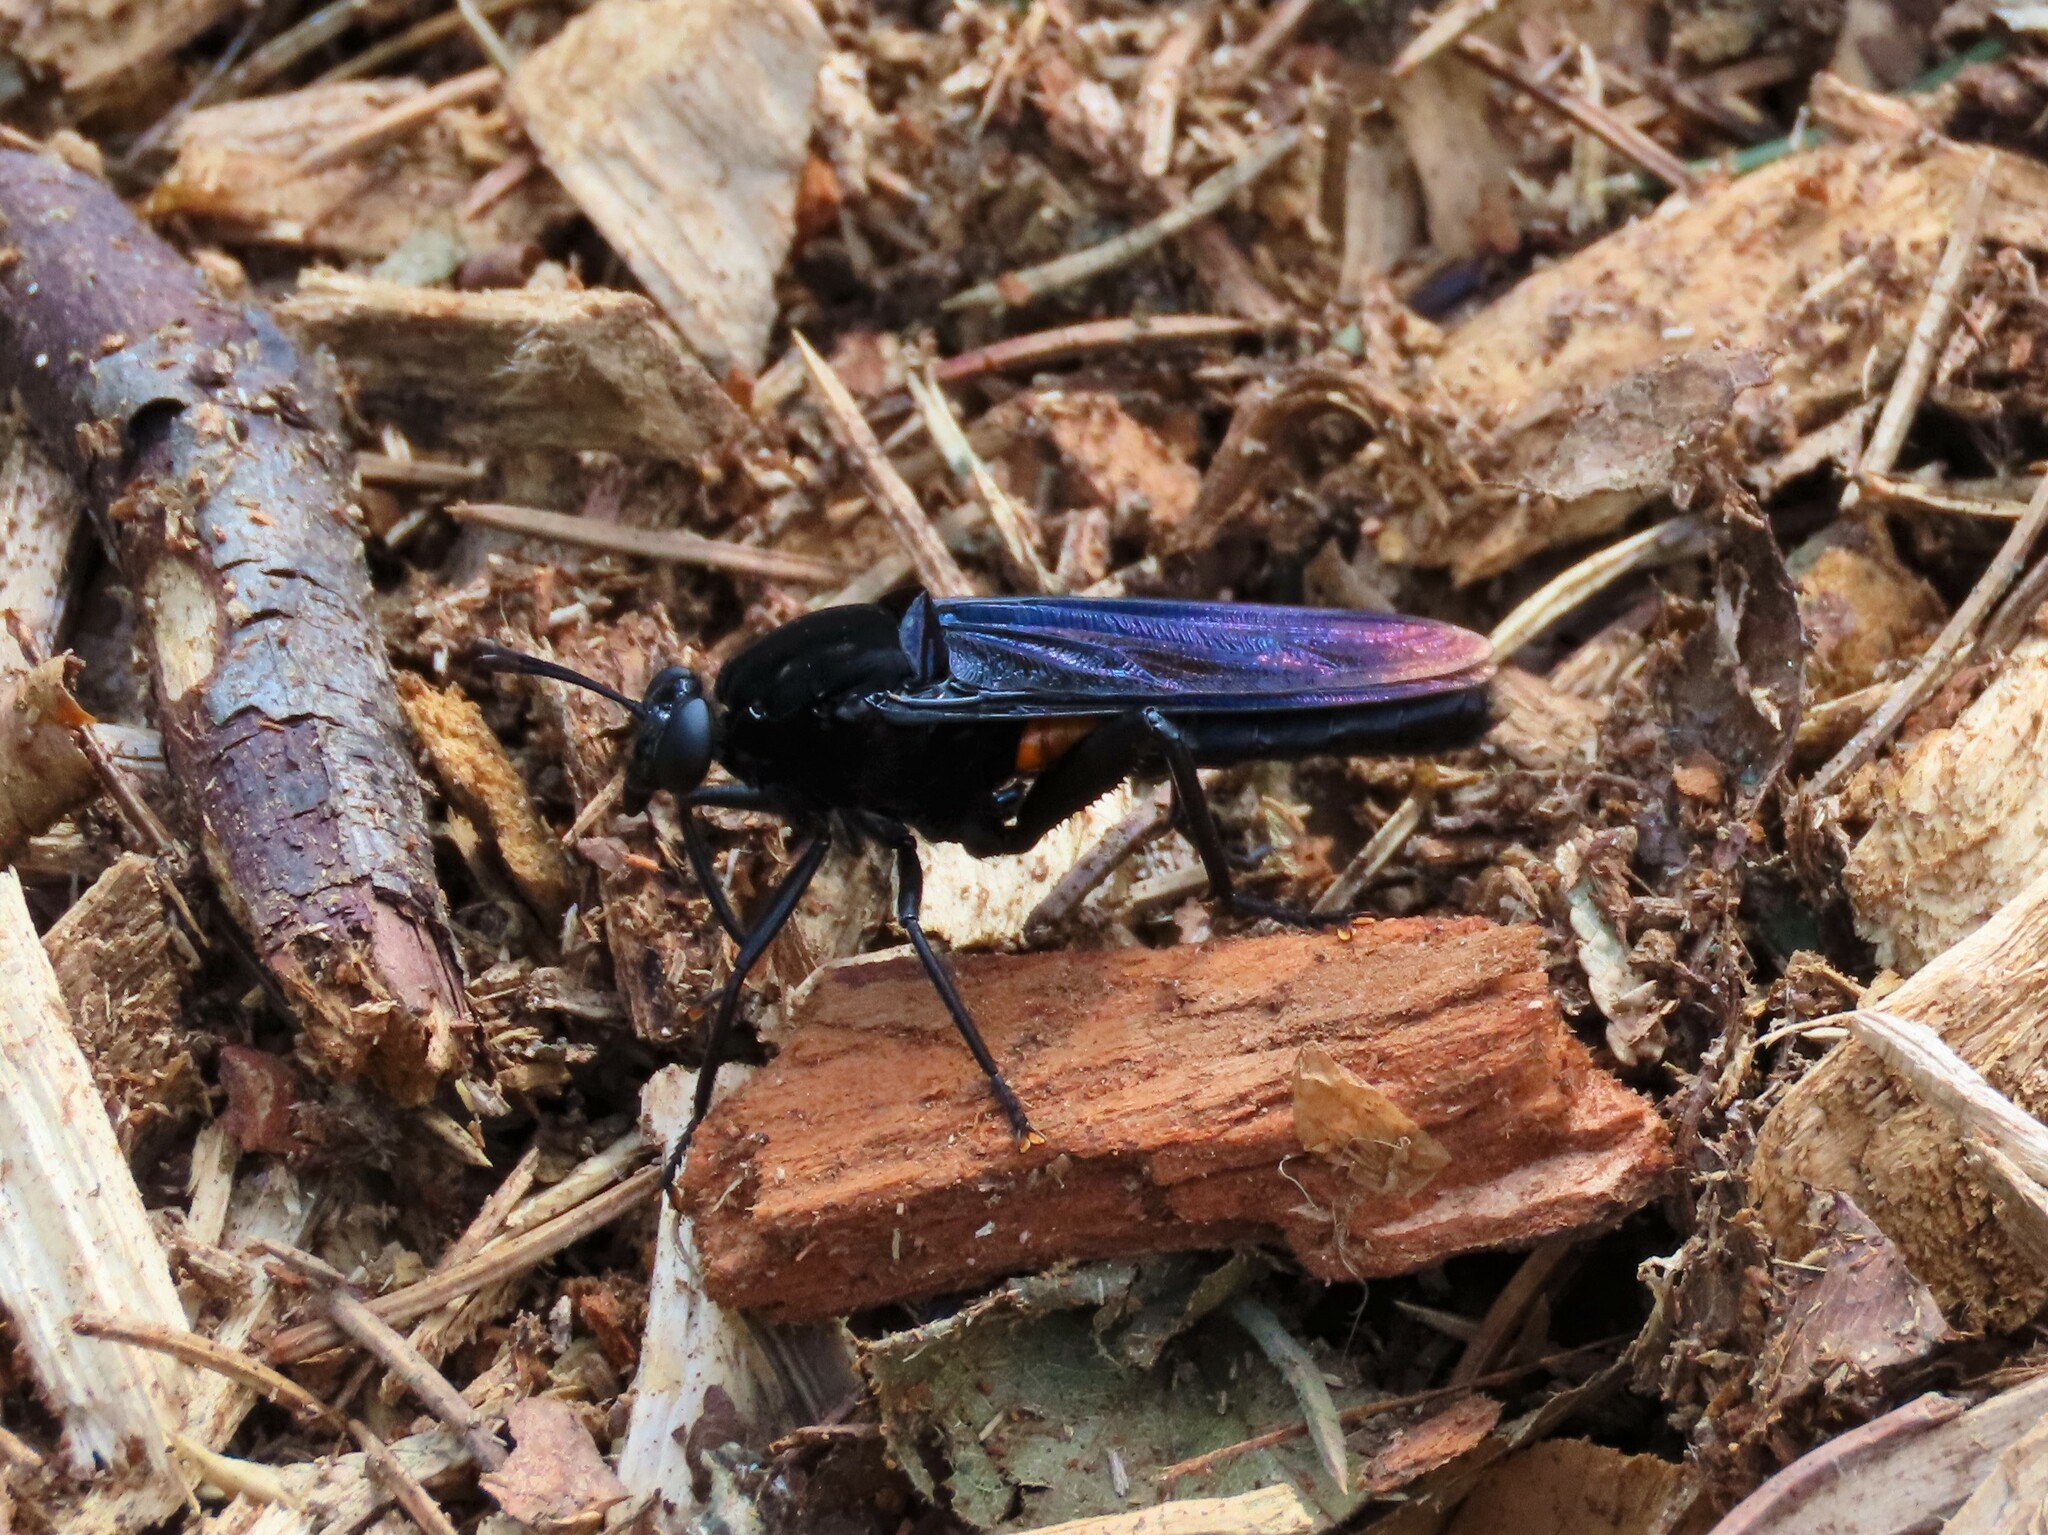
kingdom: Animalia
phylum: Arthropoda
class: Insecta
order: Diptera
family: Mydidae
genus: Mydas
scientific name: Mydas clavatus
